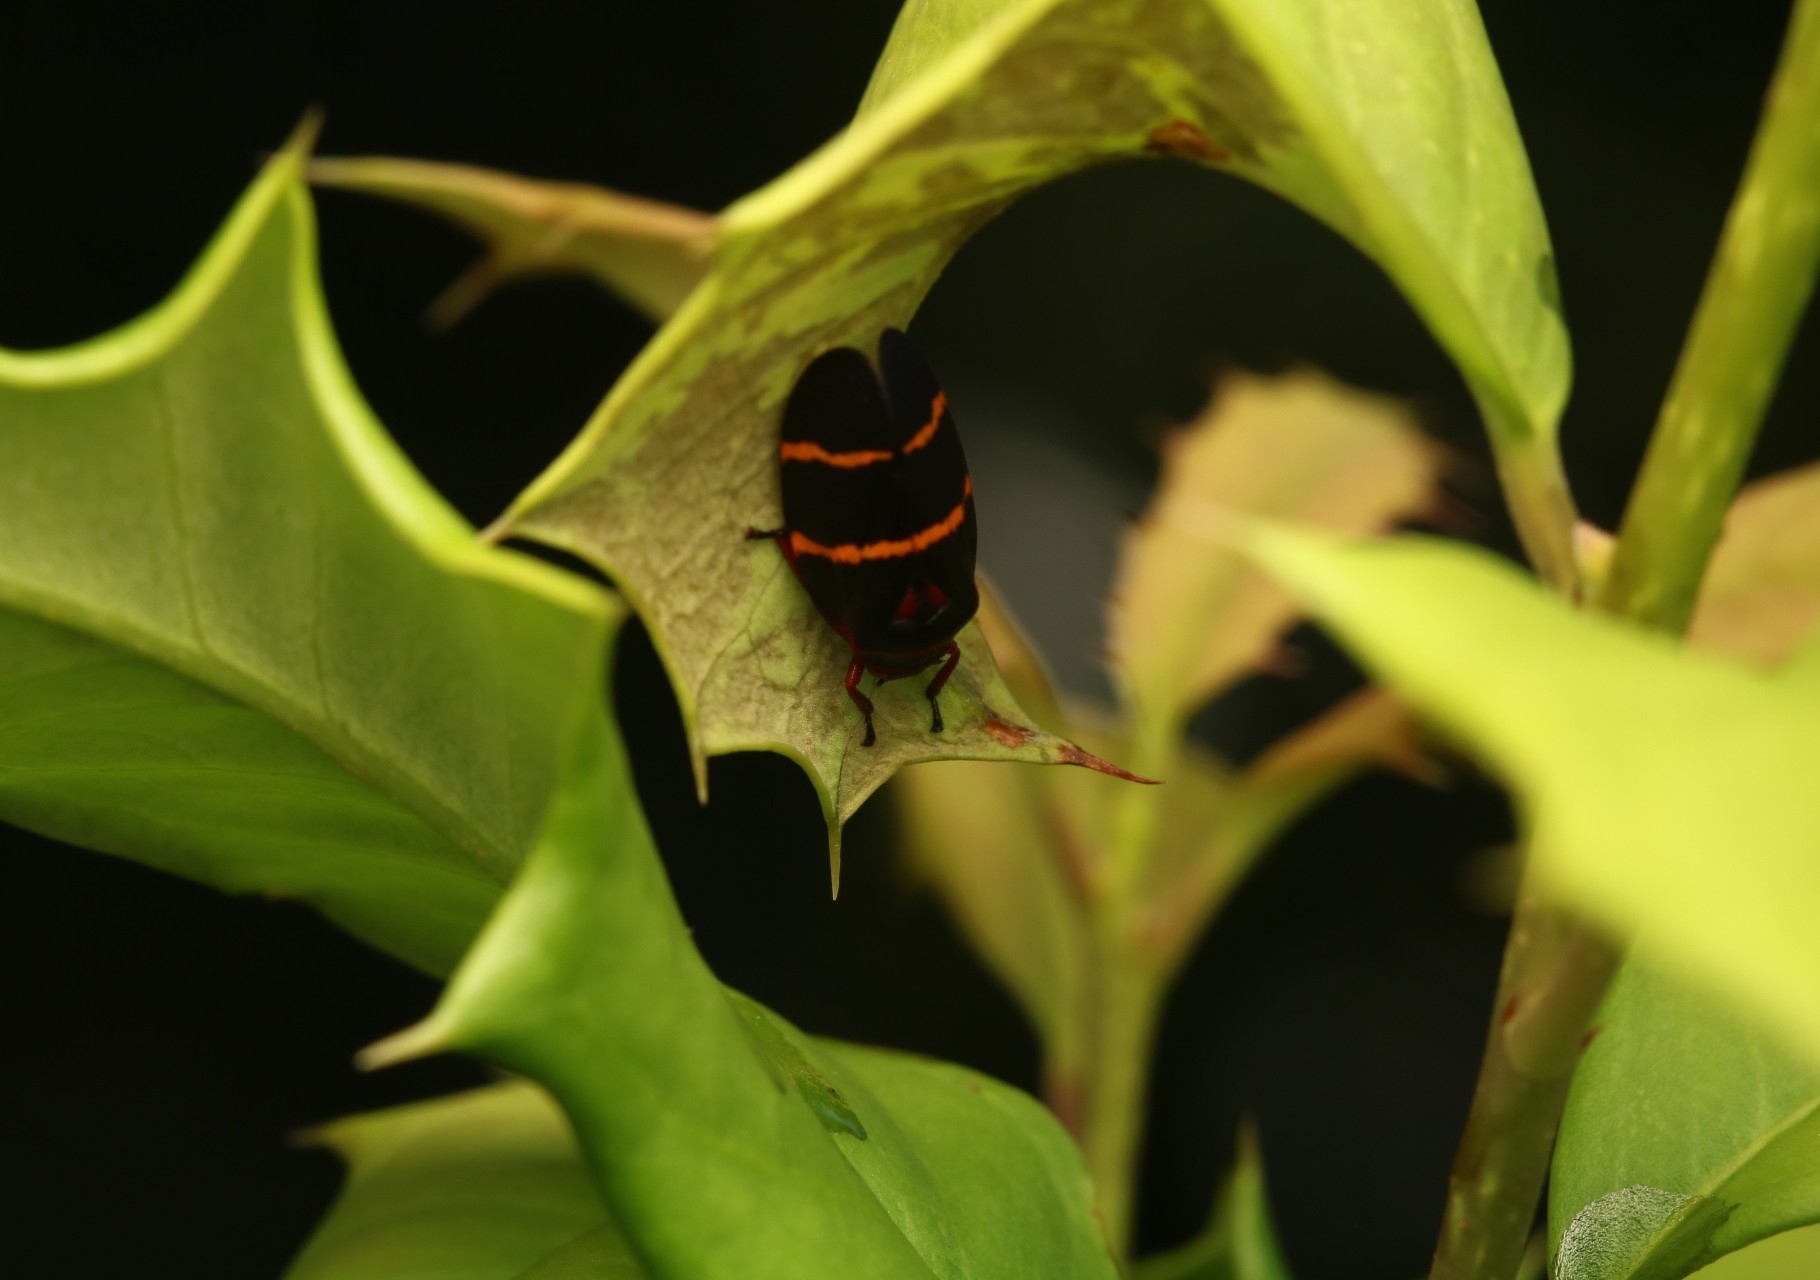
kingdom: Animalia
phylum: Arthropoda
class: Insecta
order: Hemiptera
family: Cercopidae
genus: Prosapia
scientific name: Prosapia bicincta
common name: Twolined spittlebug
